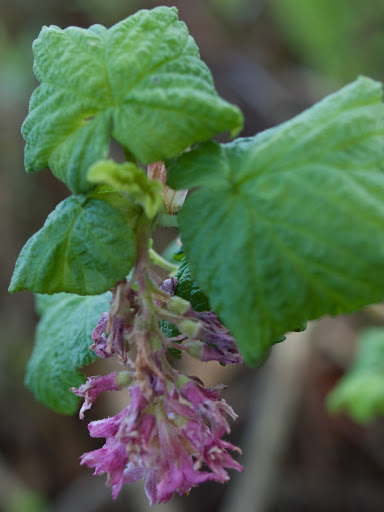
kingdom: Plantae
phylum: Tracheophyta
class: Magnoliopsida
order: Saxifragales
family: Grossulariaceae
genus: Ribes
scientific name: Ribes sanguineum
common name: Flowering currant
